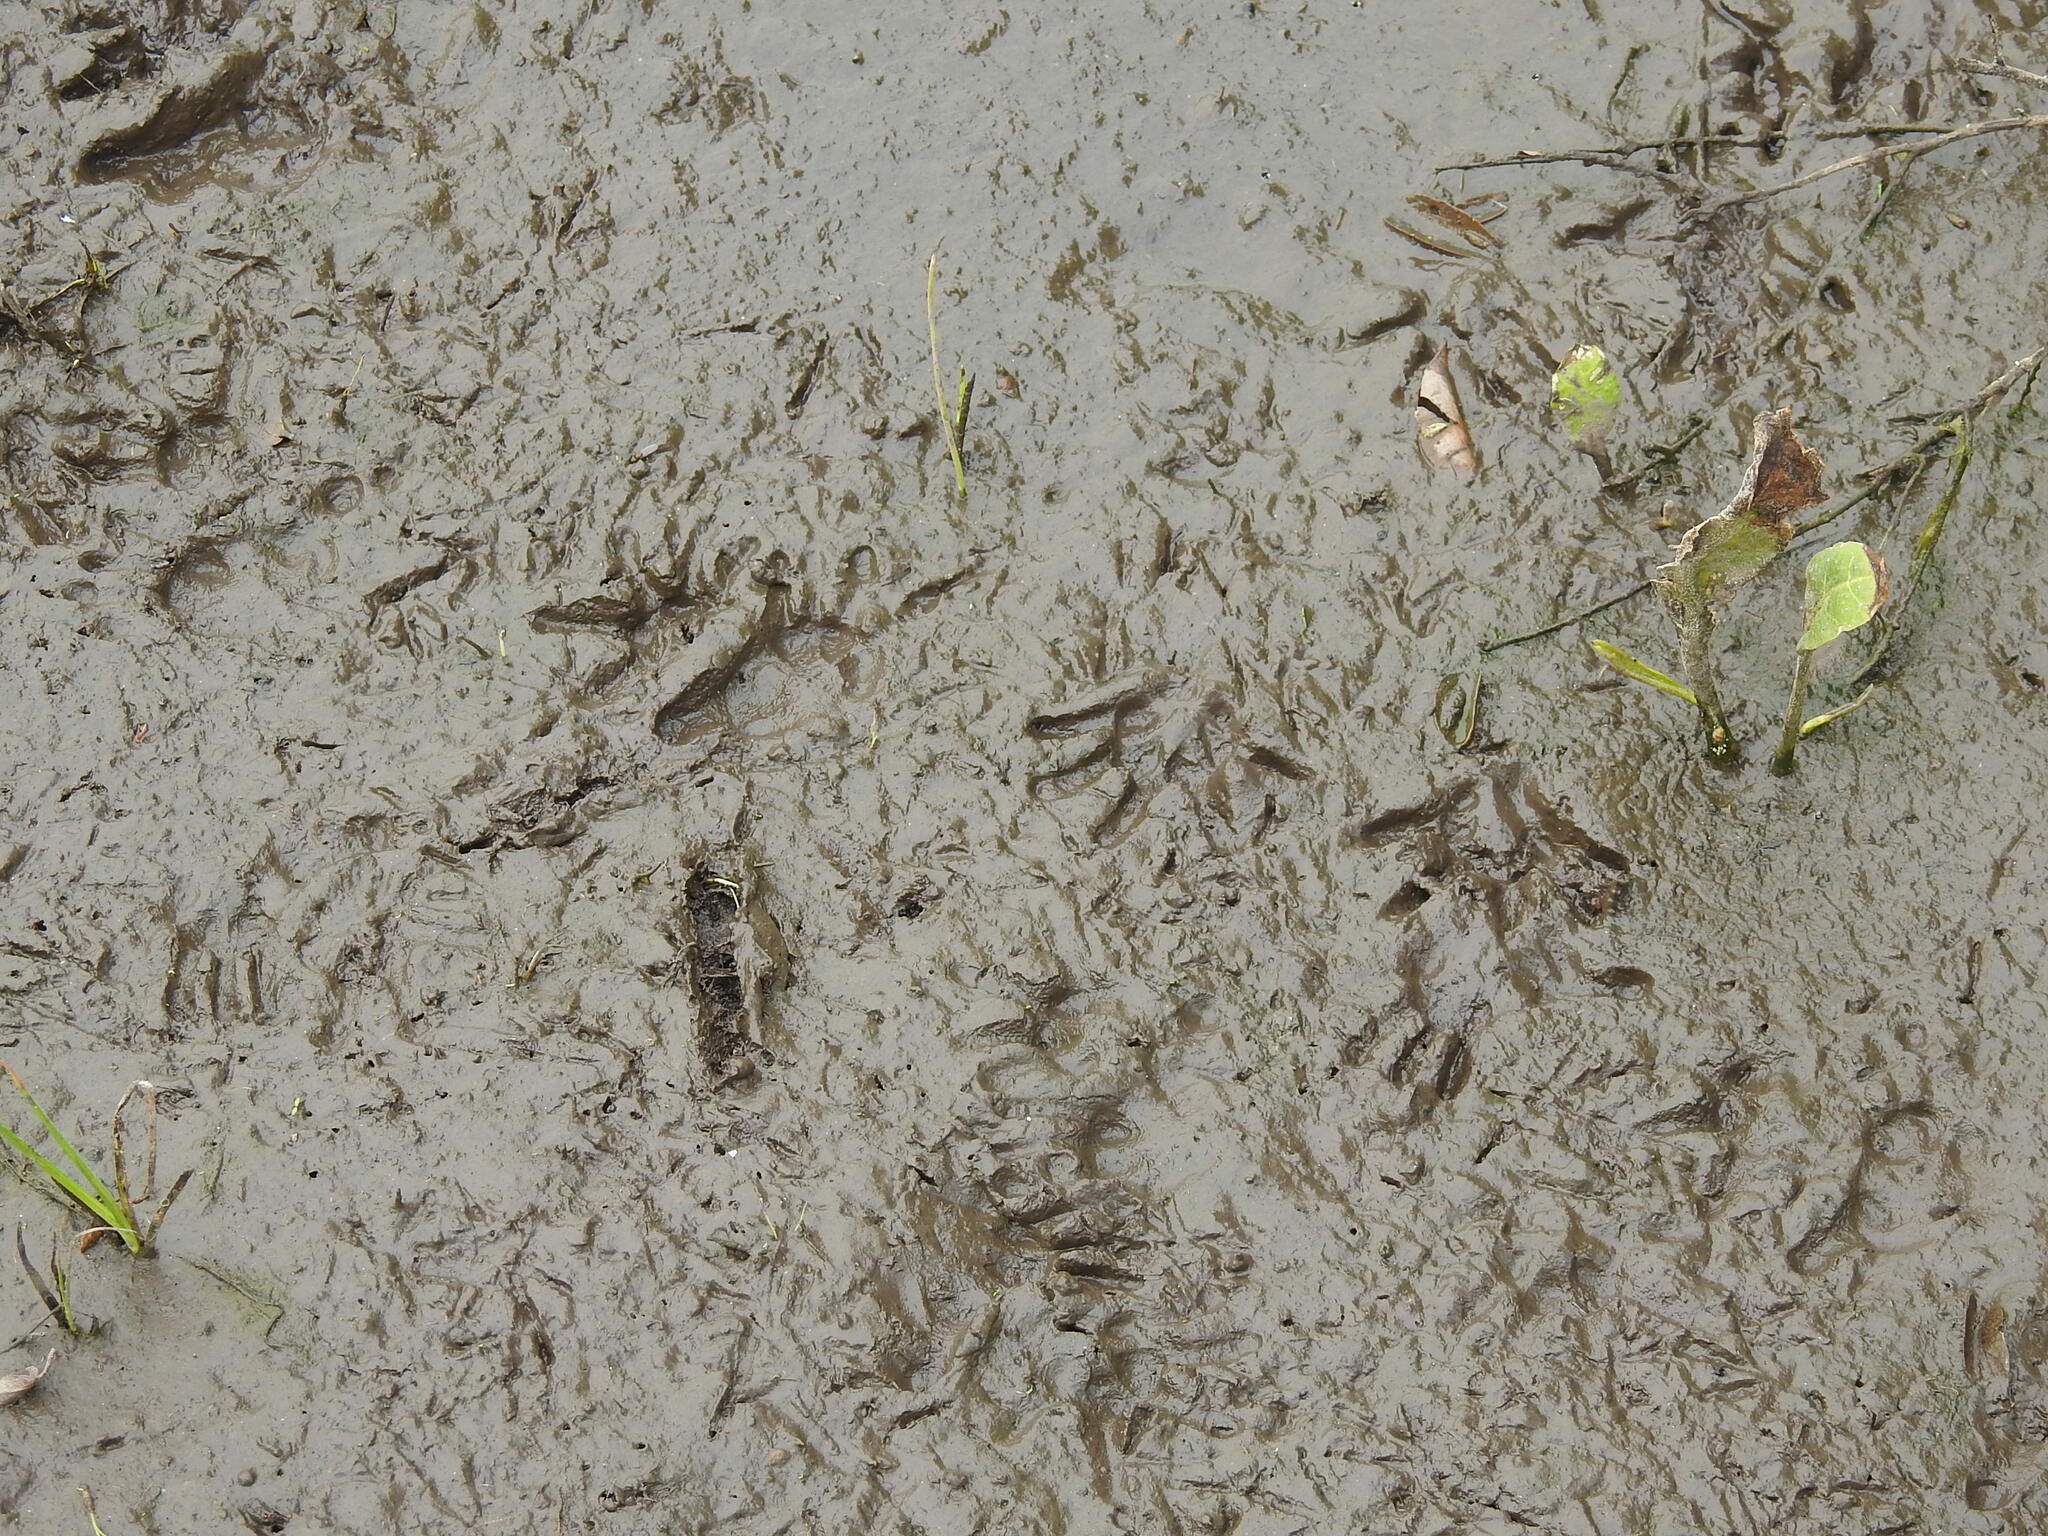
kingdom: Animalia
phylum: Chordata
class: Mammalia
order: Didelphimorphia
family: Didelphidae
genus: Didelphis
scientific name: Didelphis albiventris
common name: White-eared opossum
